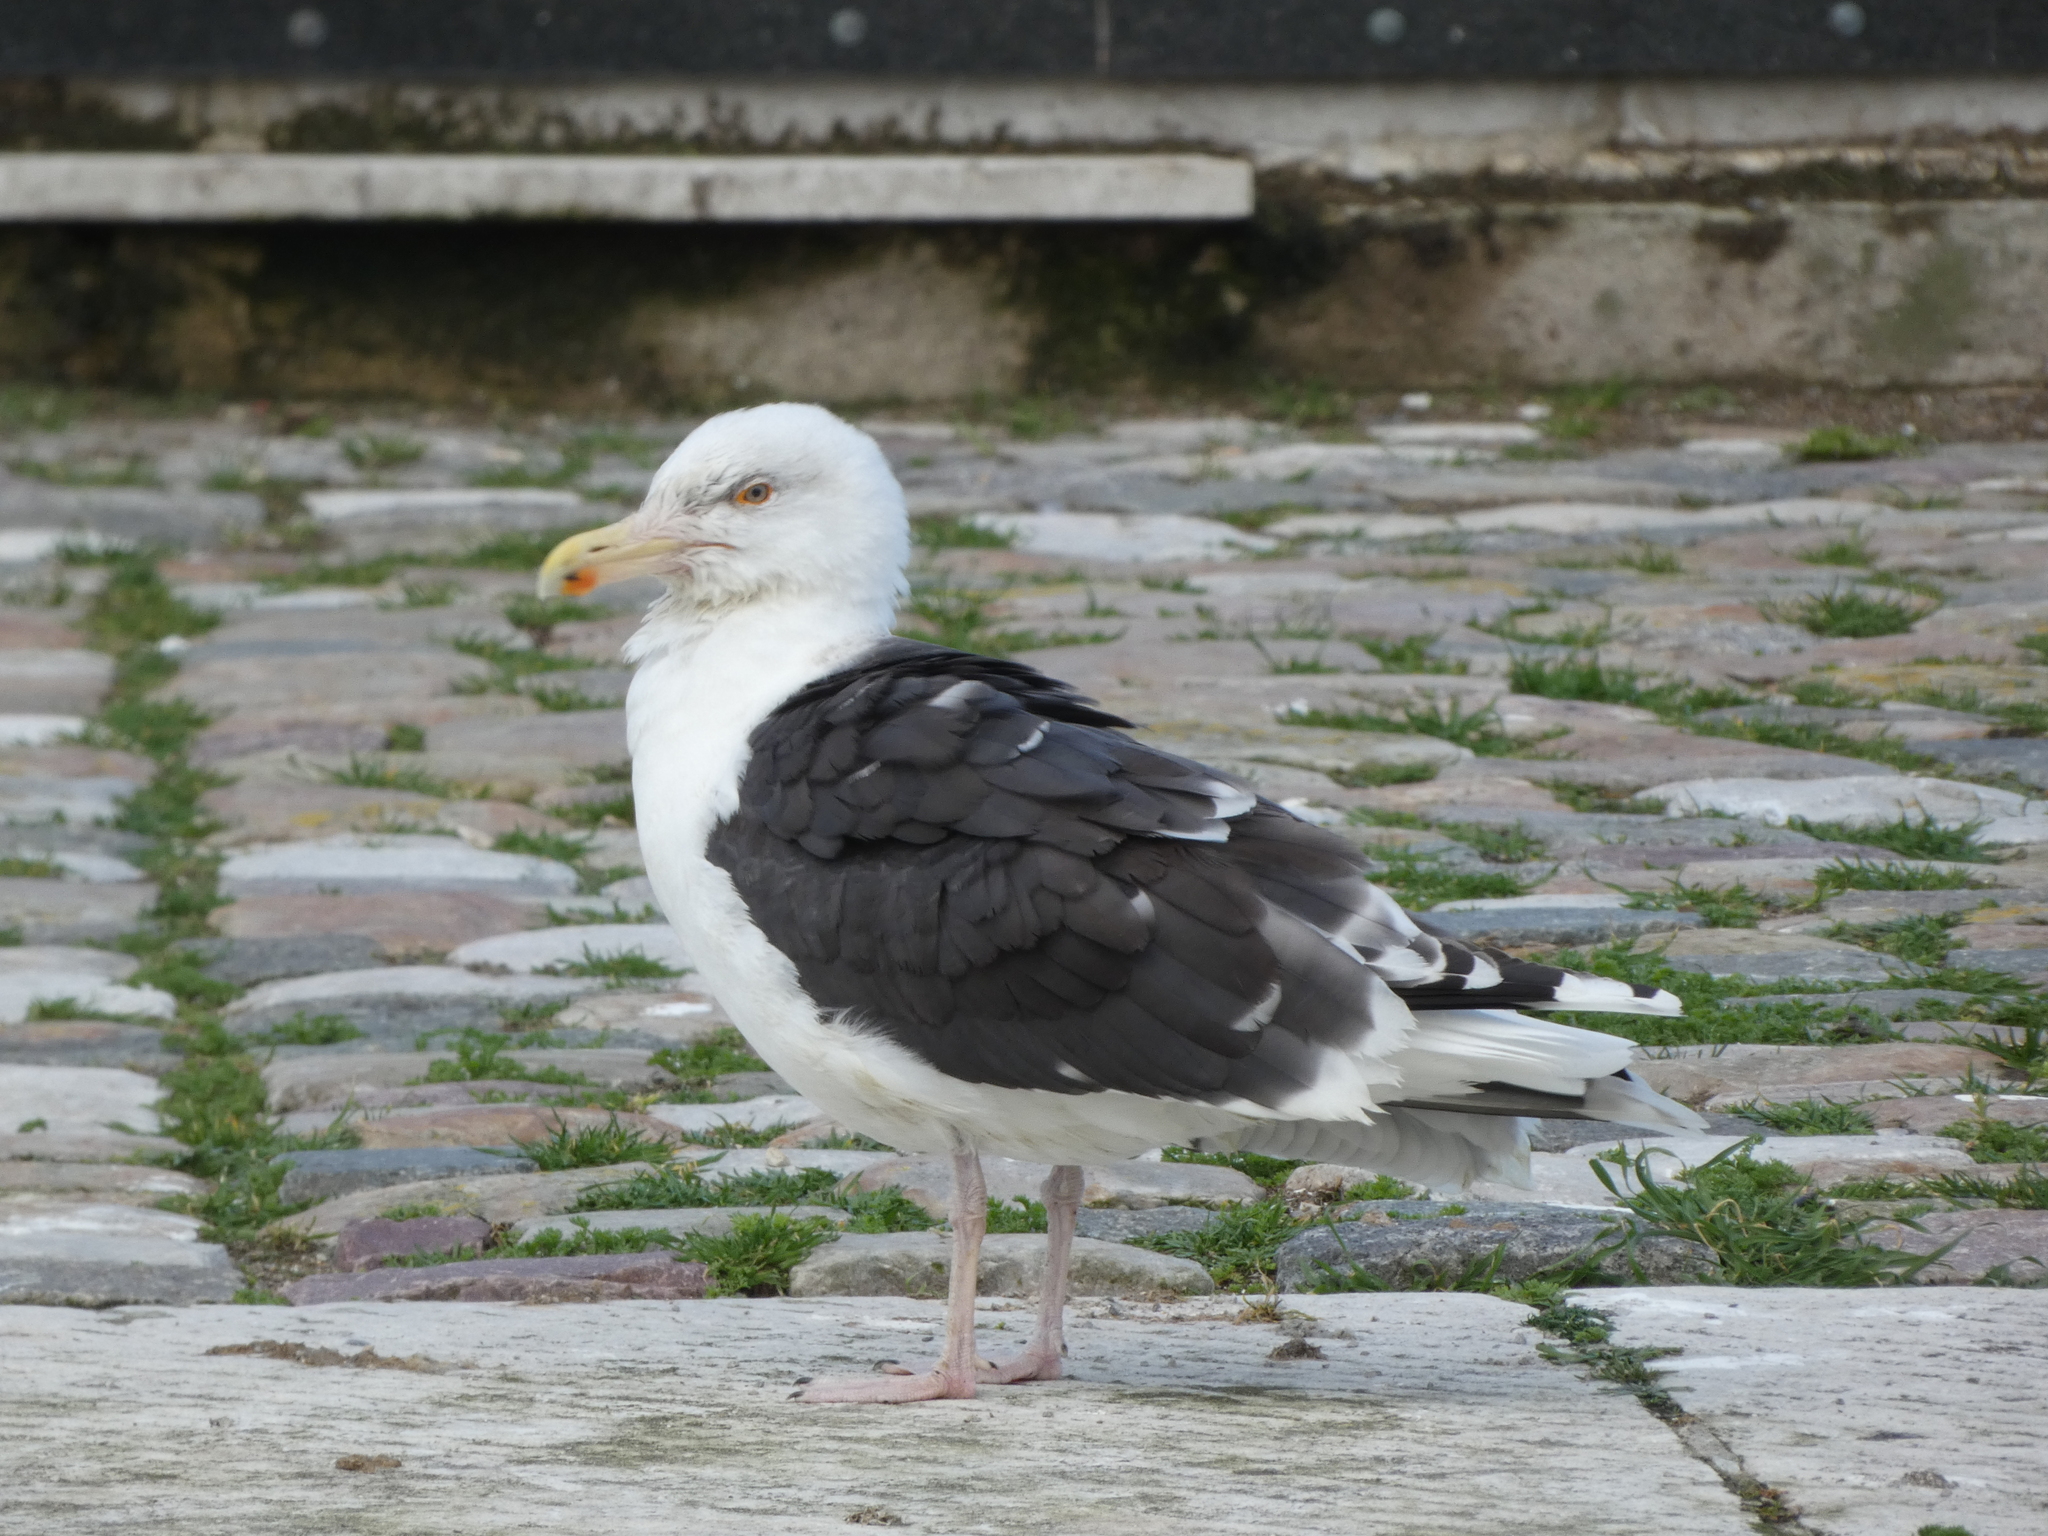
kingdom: Animalia
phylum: Chordata
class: Aves
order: Charadriiformes
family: Laridae
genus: Larus
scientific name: Larus marinus
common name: Great black-backed gull
